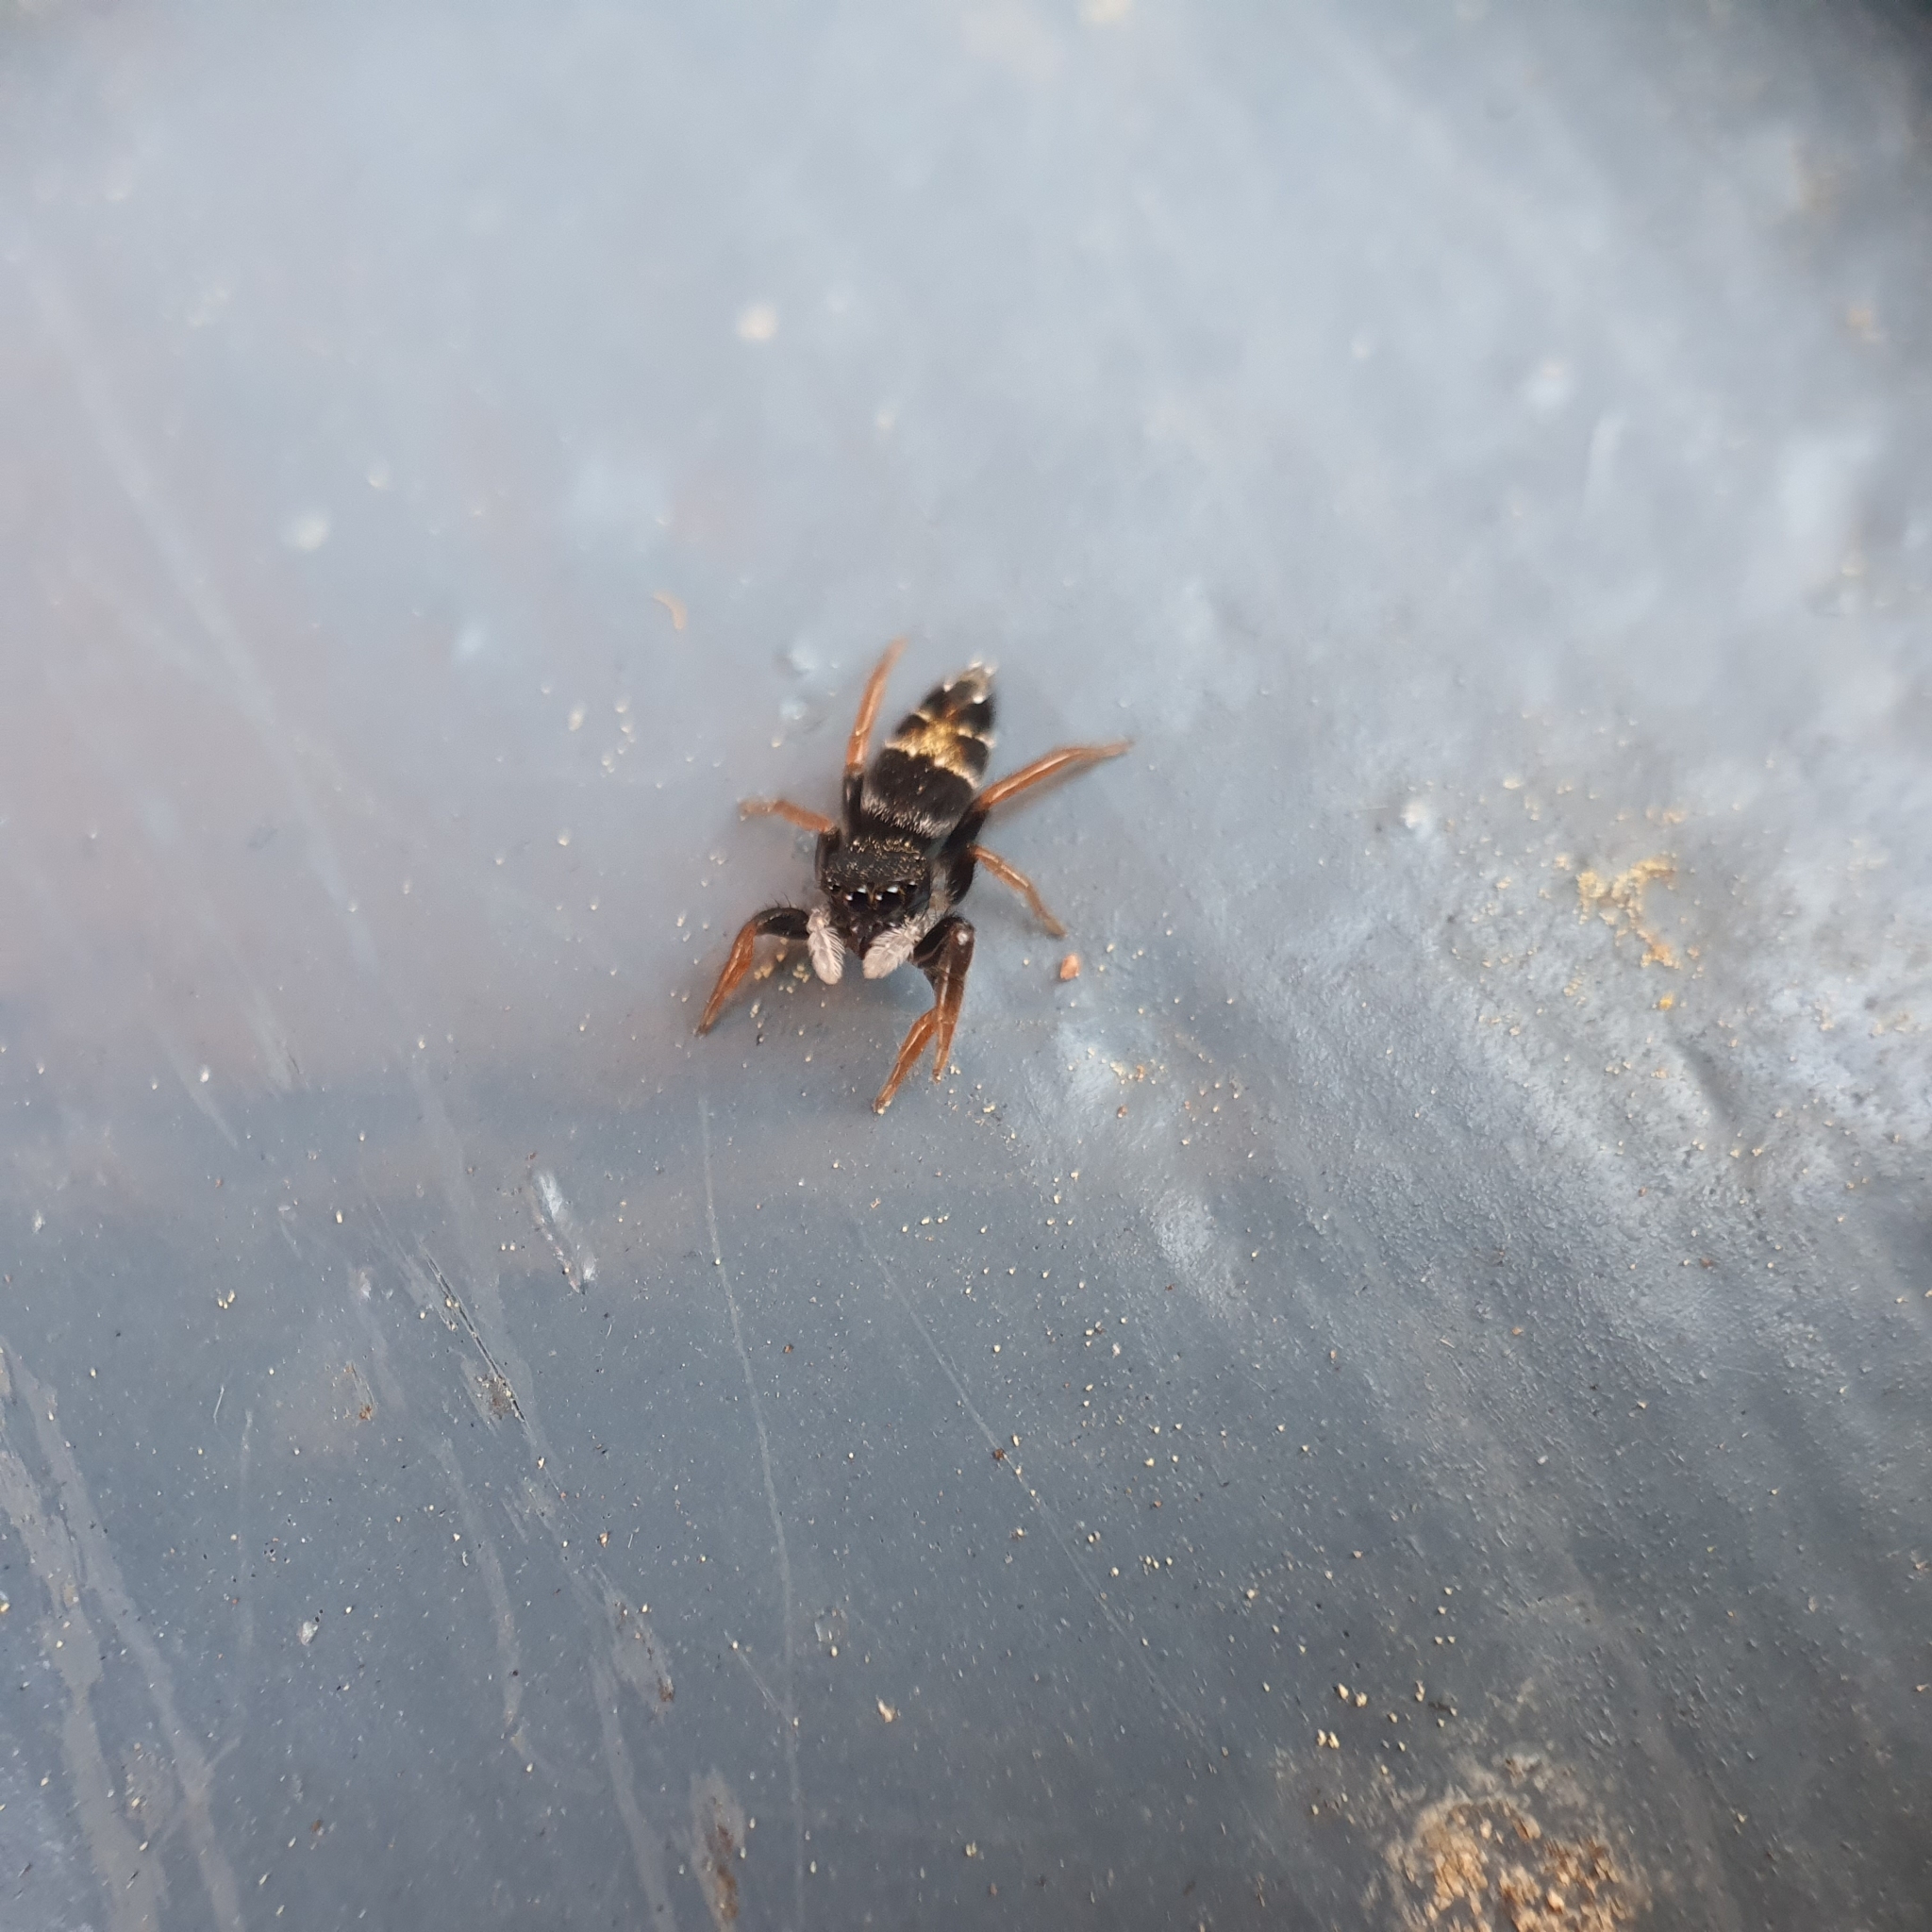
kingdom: Animalia
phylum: Arthropoda
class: Arachnida
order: Araneae
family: Salticidae
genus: Apricia
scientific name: Apricia jovialis
